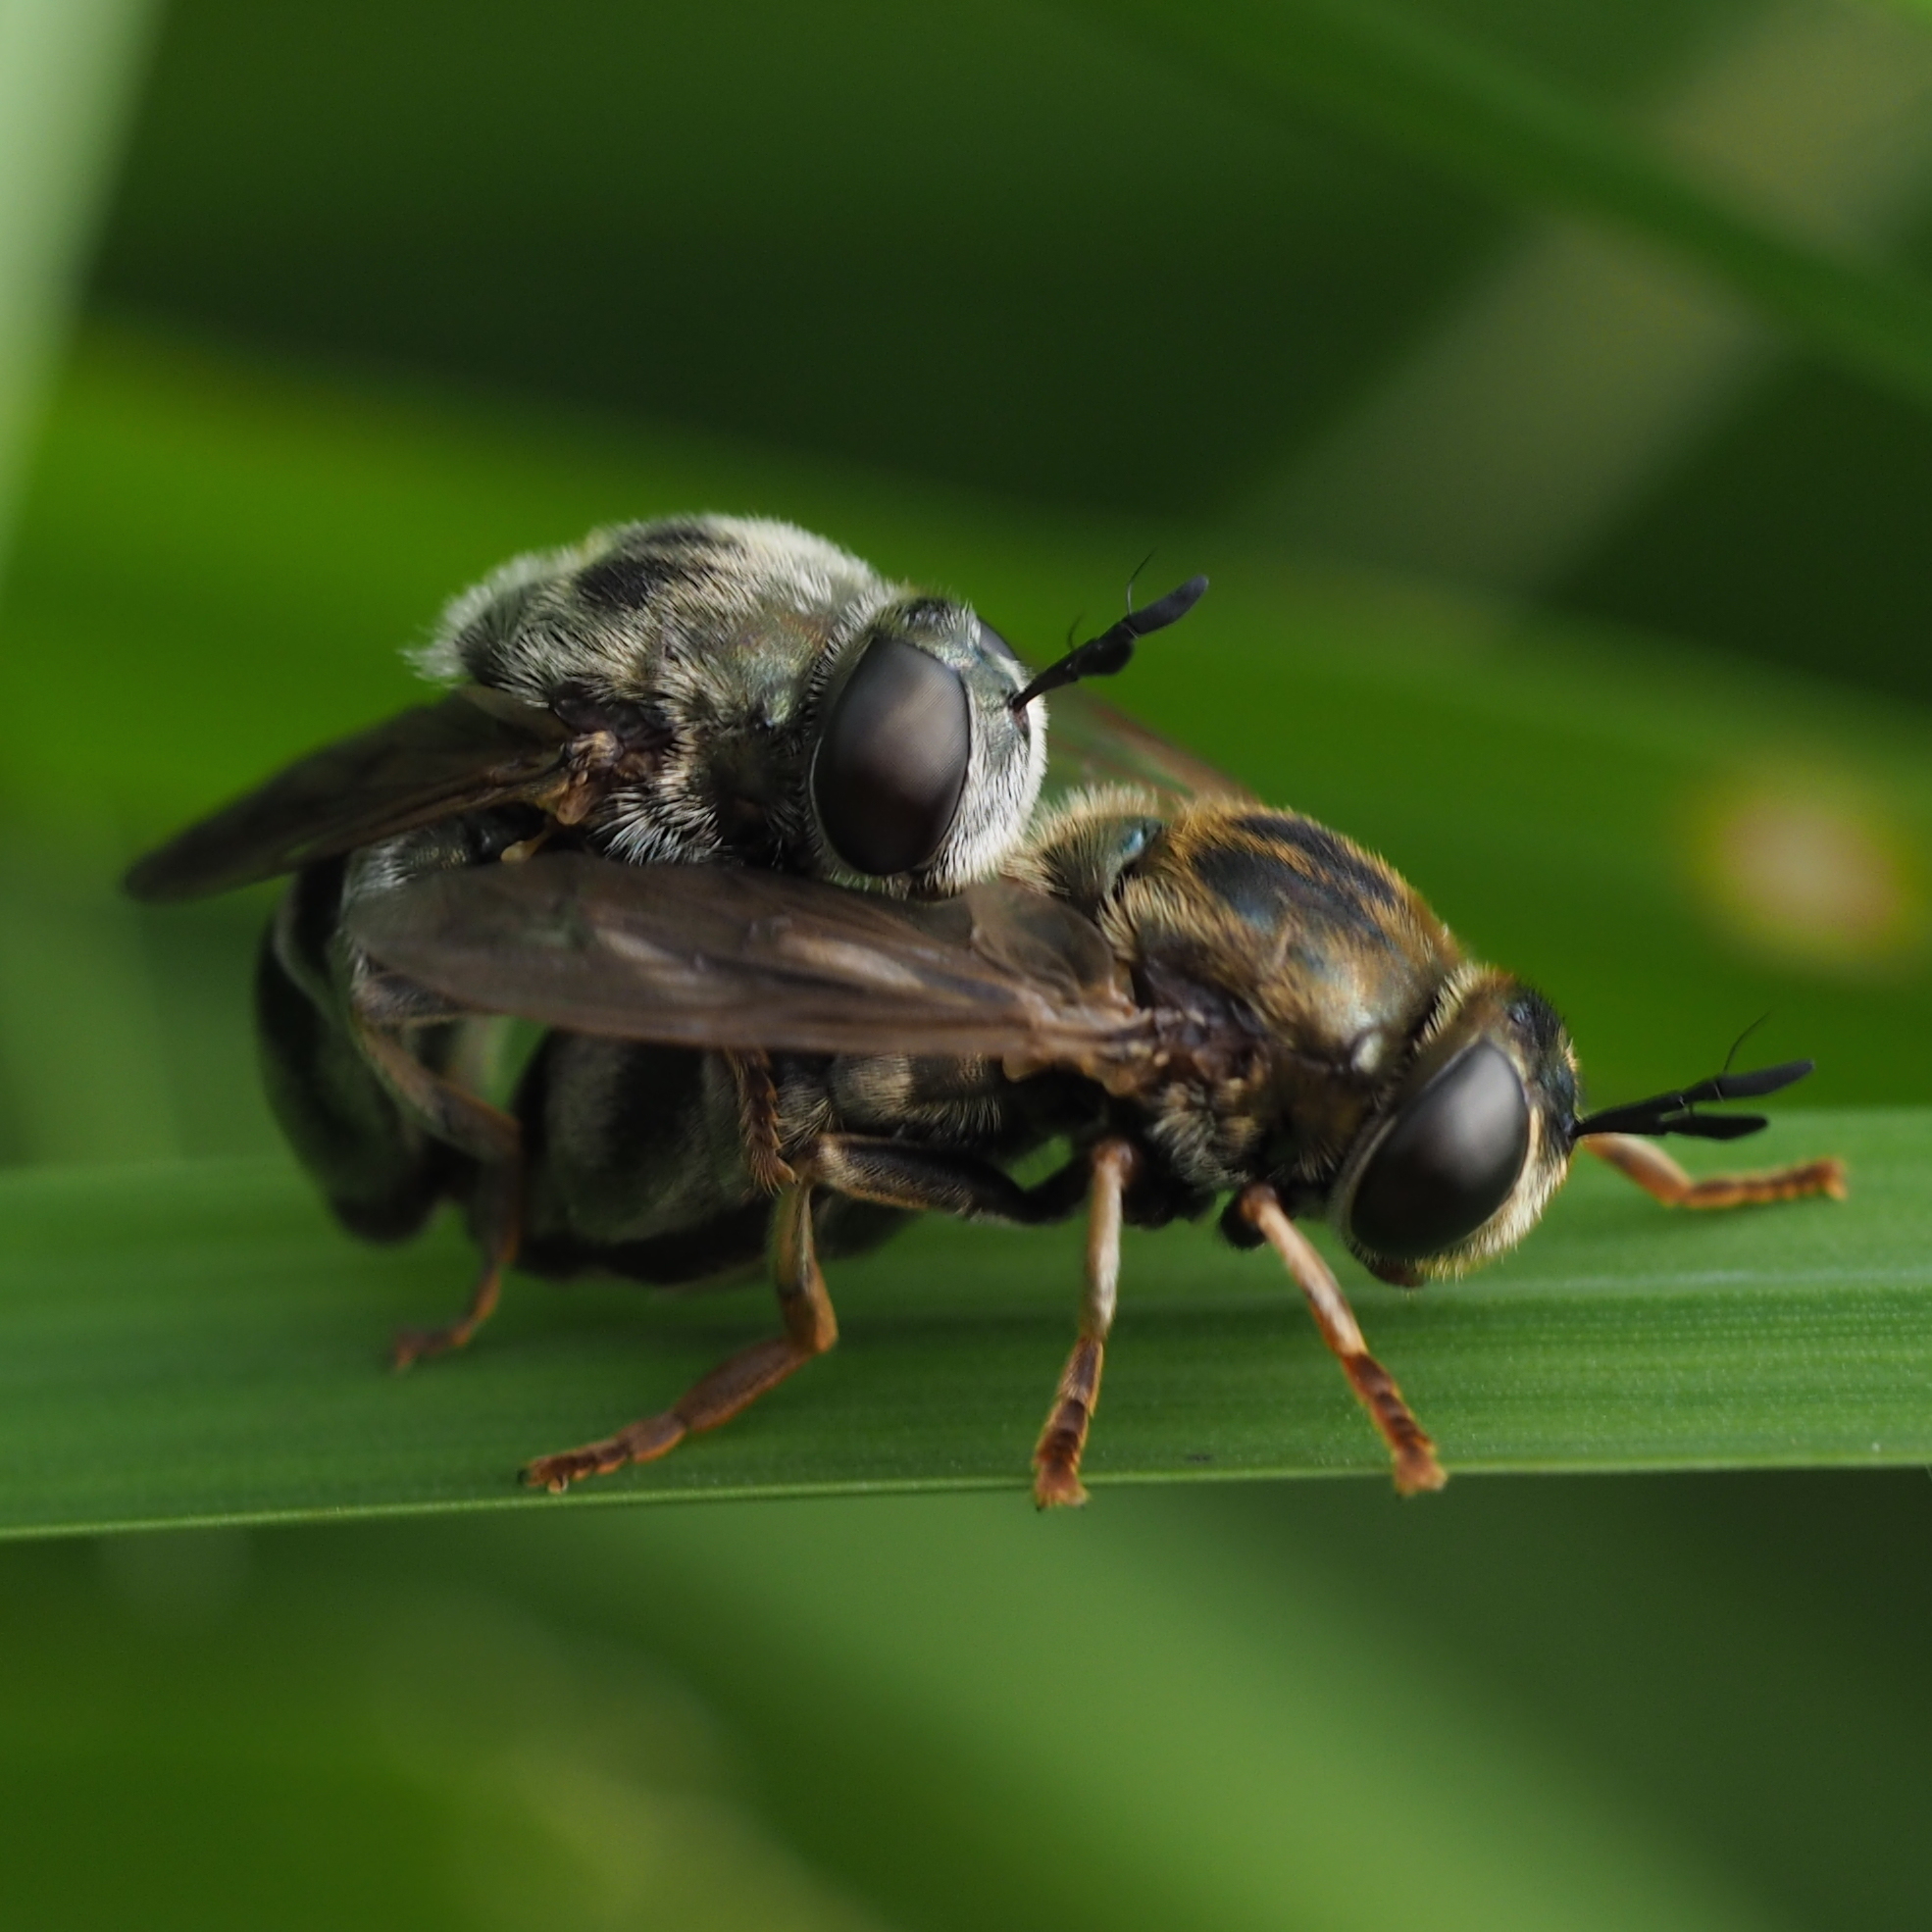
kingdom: Animalia
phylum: Arthropoda
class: Insecta
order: Diptera
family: Syrphidae
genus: Microdon
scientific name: Microdon devius
